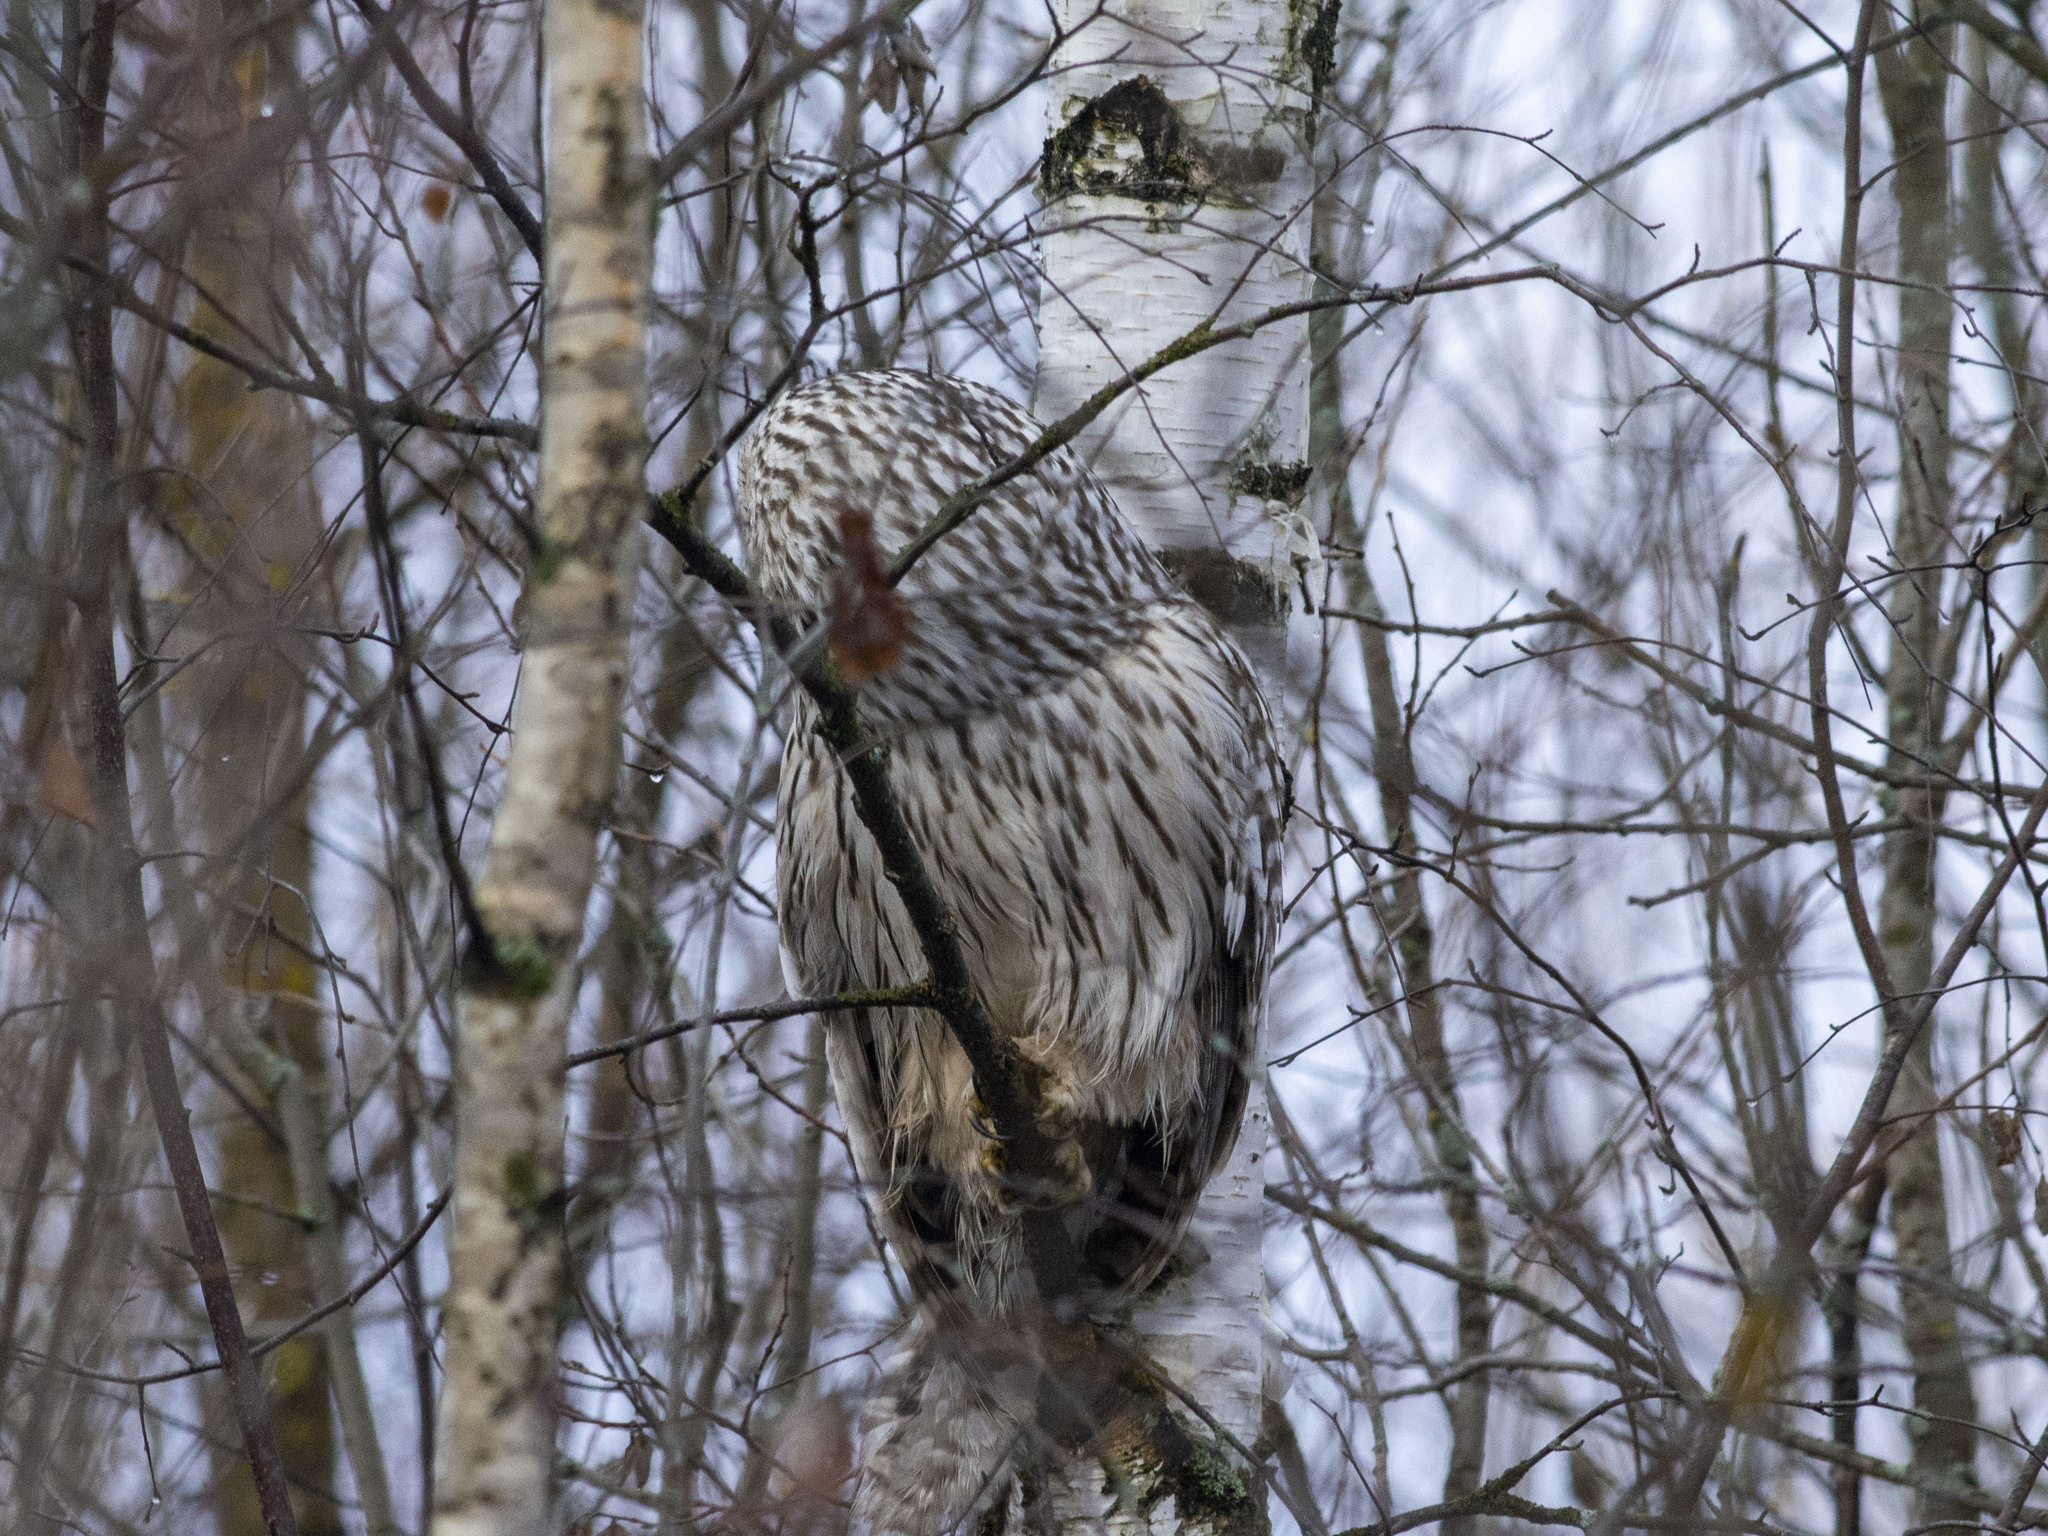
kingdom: Animalia
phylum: Chordata
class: Aves
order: Strigiformes
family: Strigidae
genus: Strix
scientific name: Strix uralensis
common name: Ural owl
